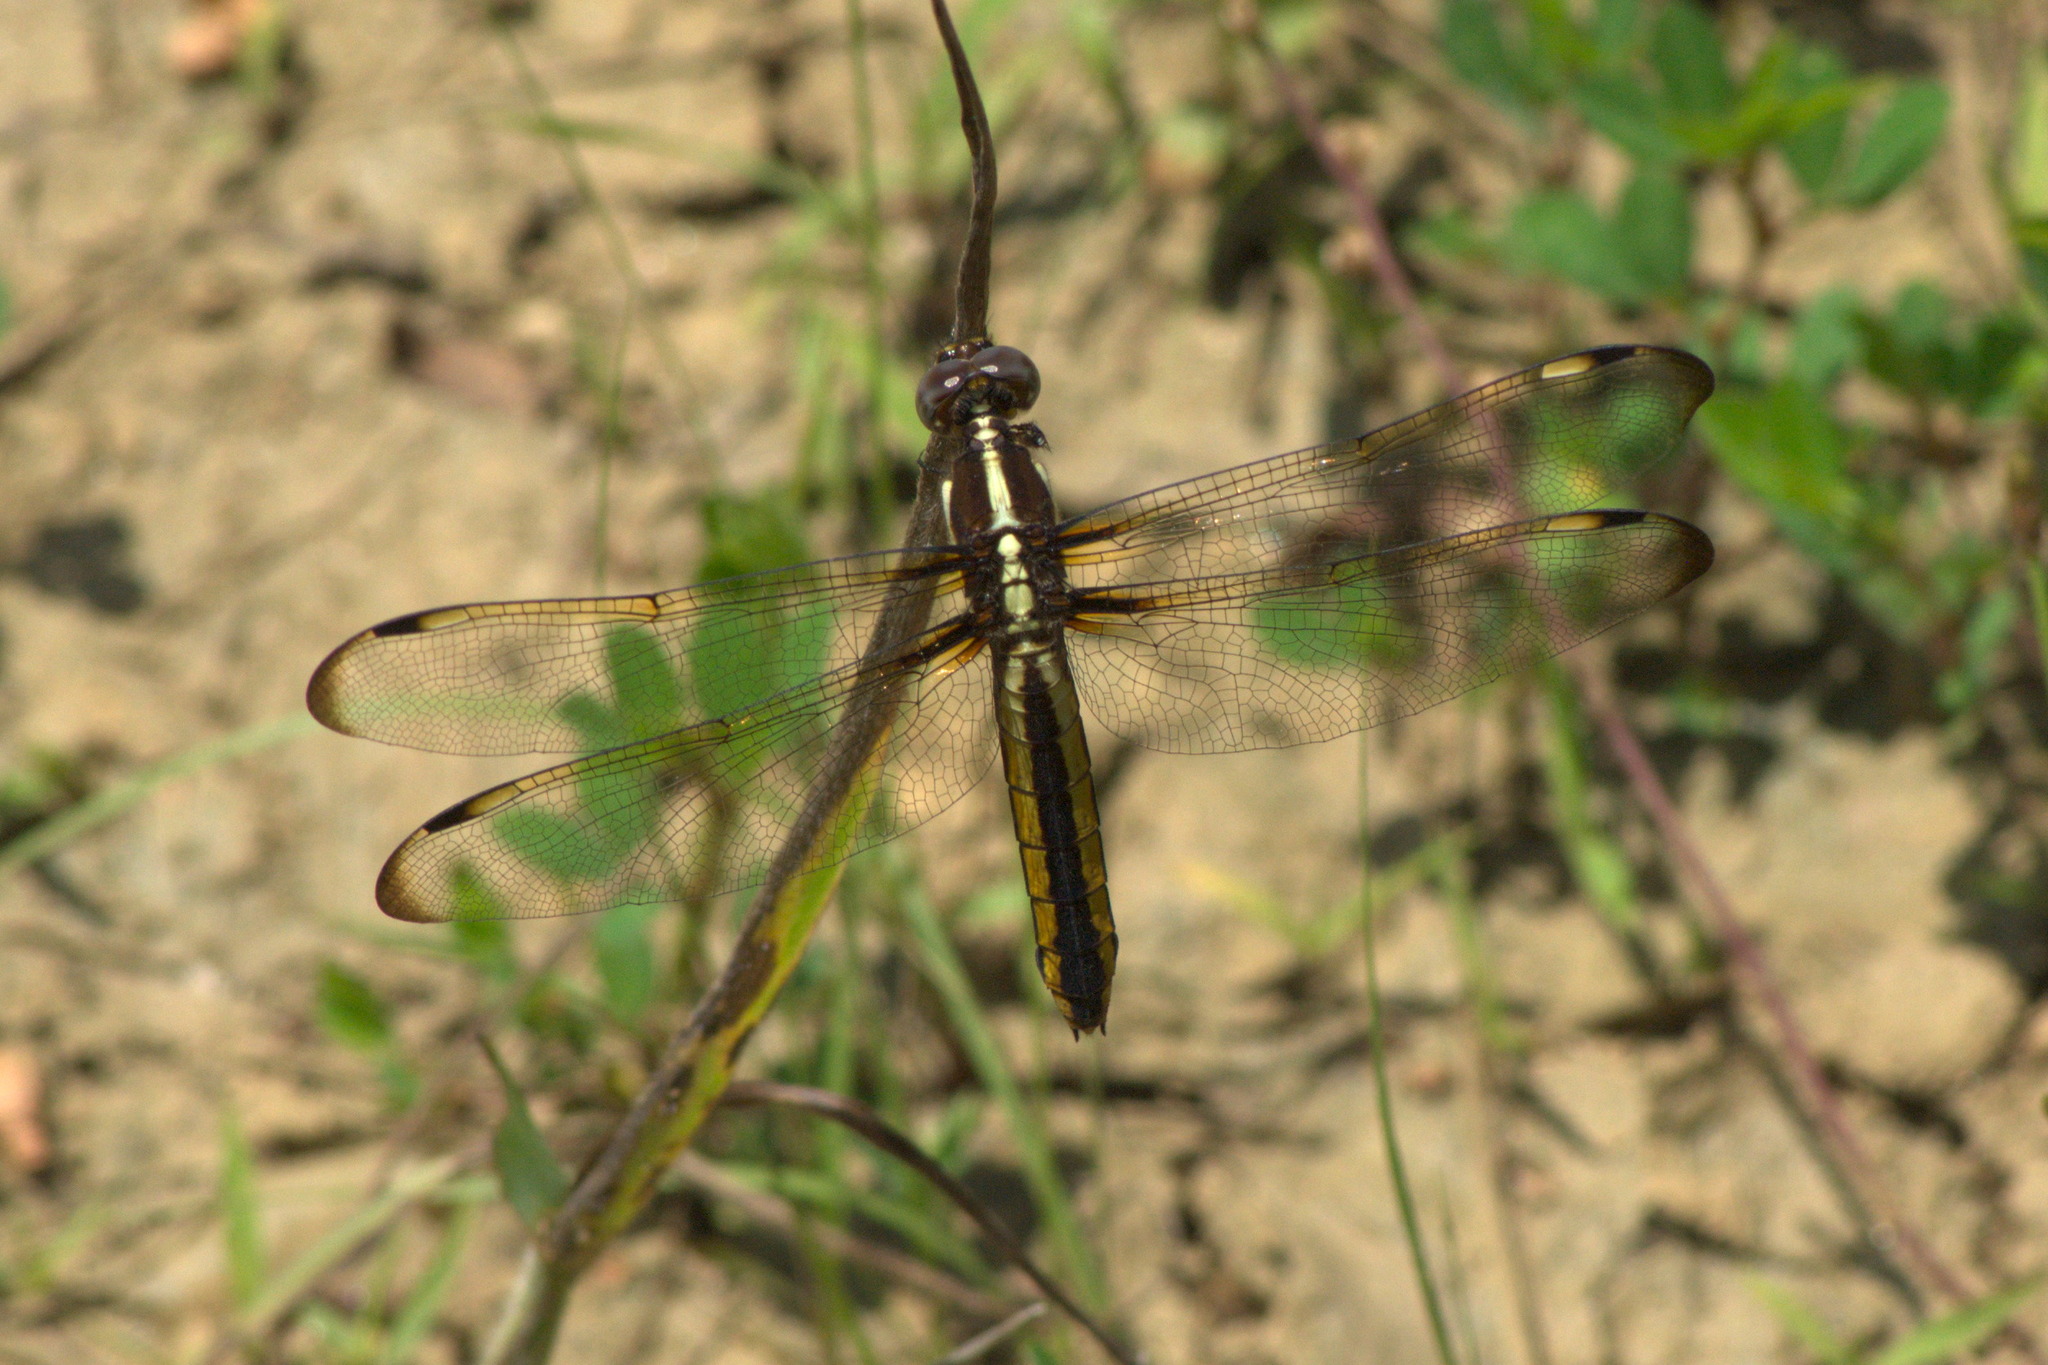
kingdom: Animalia
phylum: Arthropoda
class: Insecta
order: Odonata
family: Libellulidae
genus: Libellula
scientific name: Libellula cyanea
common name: Spangled skimmer
